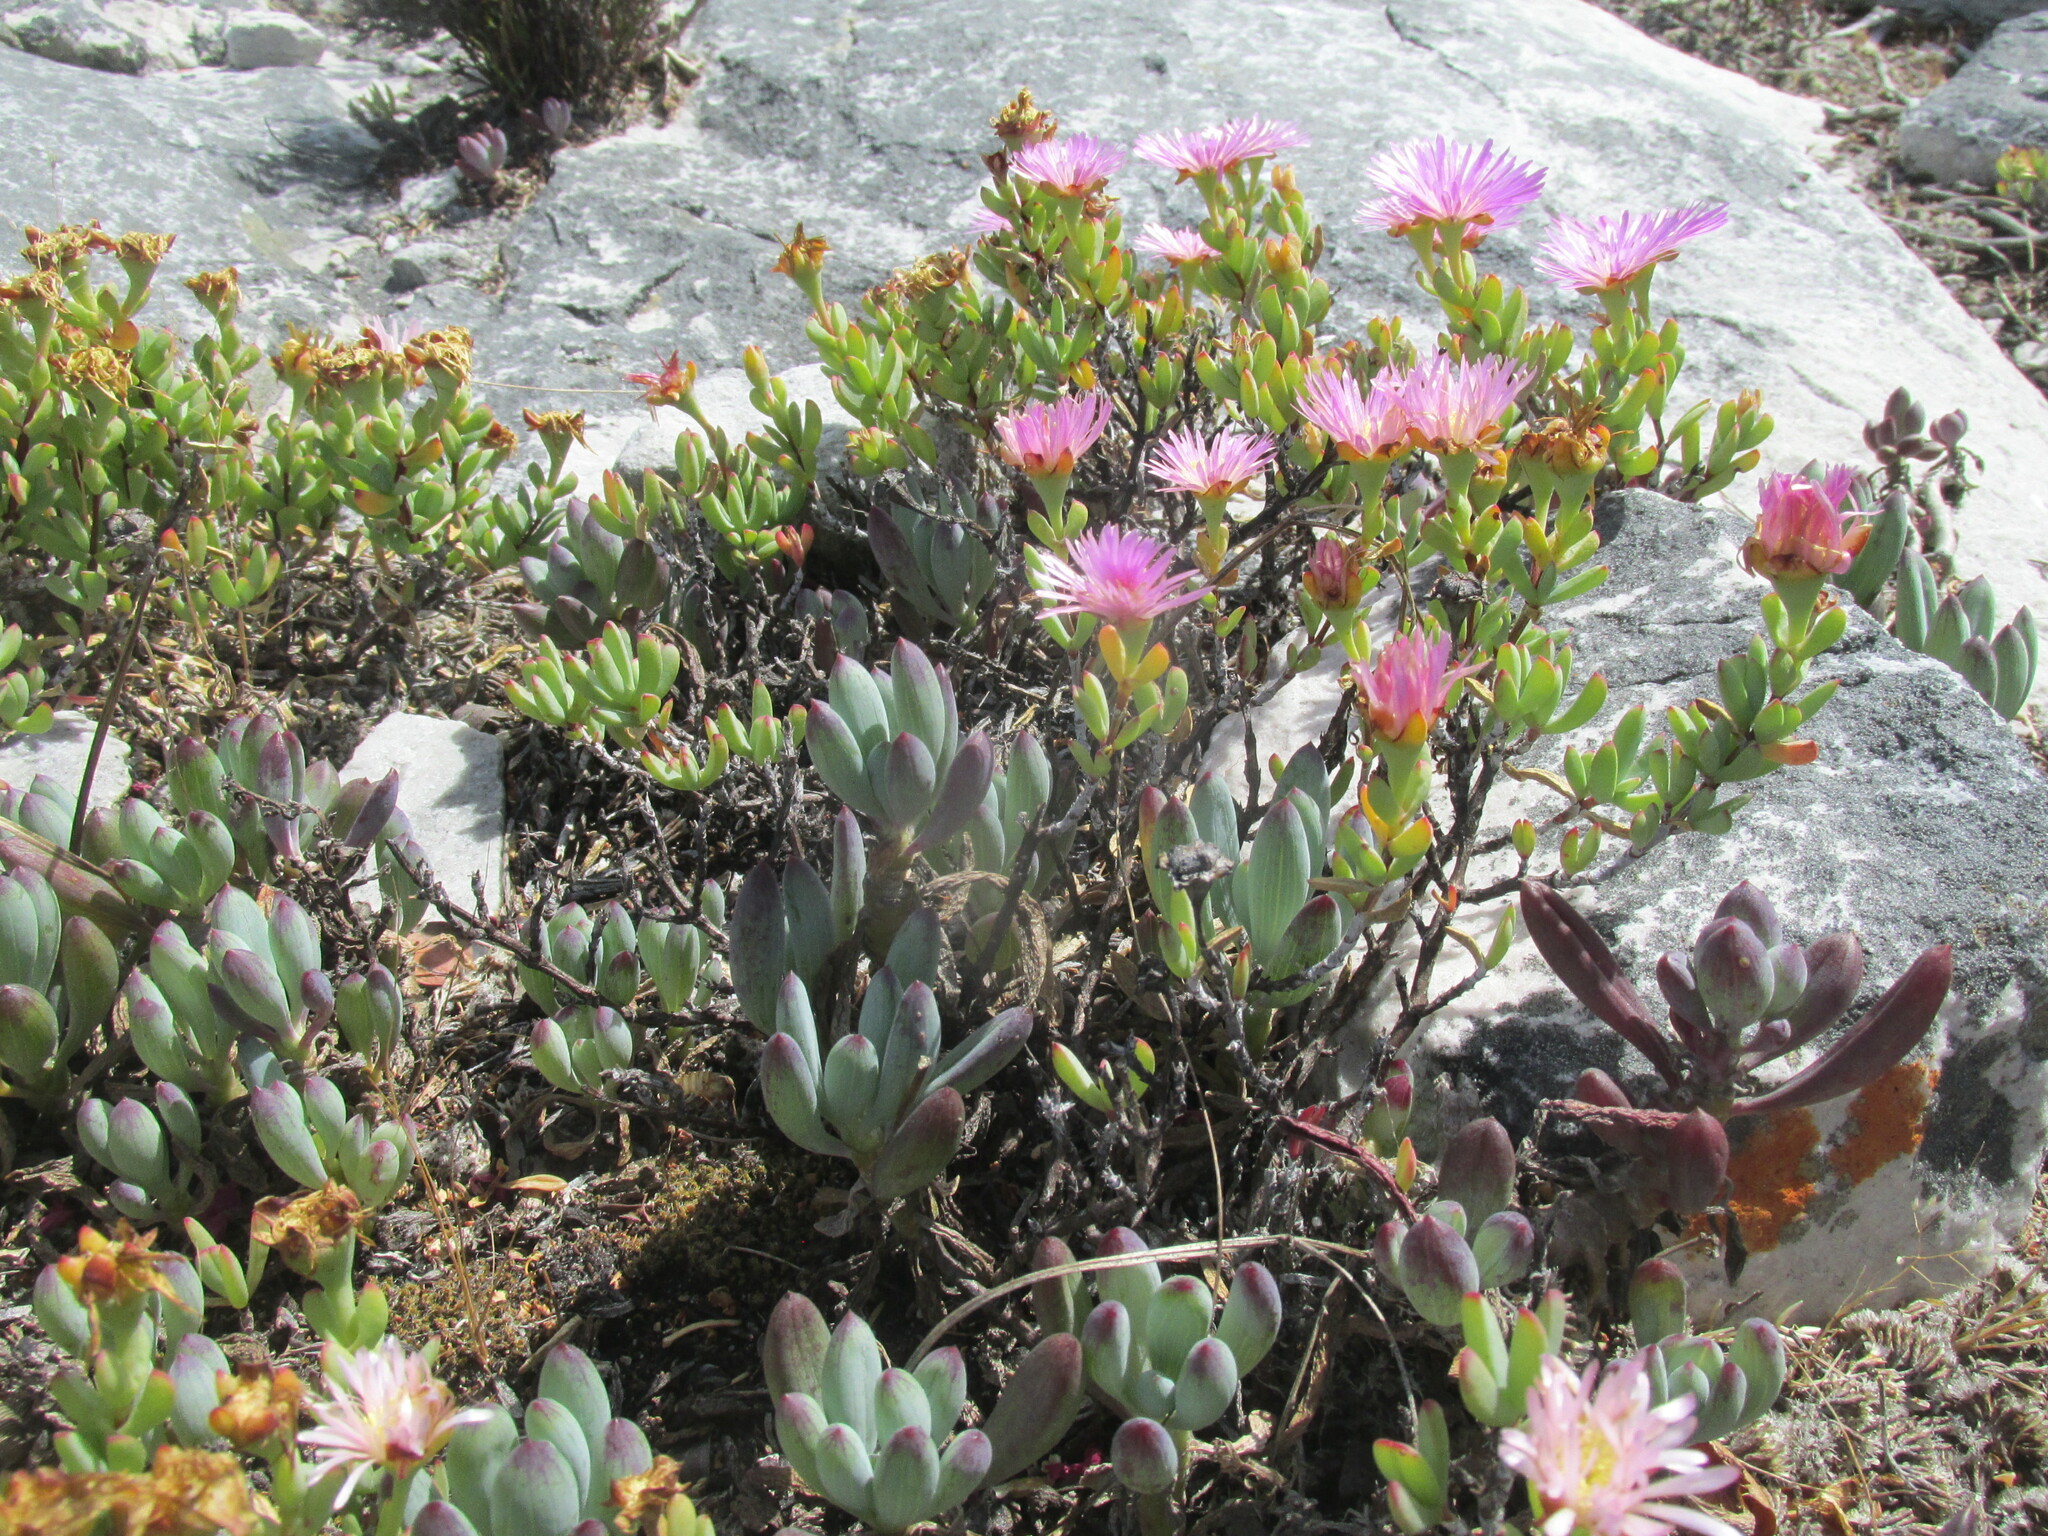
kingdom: Plantae
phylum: Tracheophyta
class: Magnoliopsida
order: Caryophyllales
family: Aizoaceae
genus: Oscularia
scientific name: Oscularia falciformis
